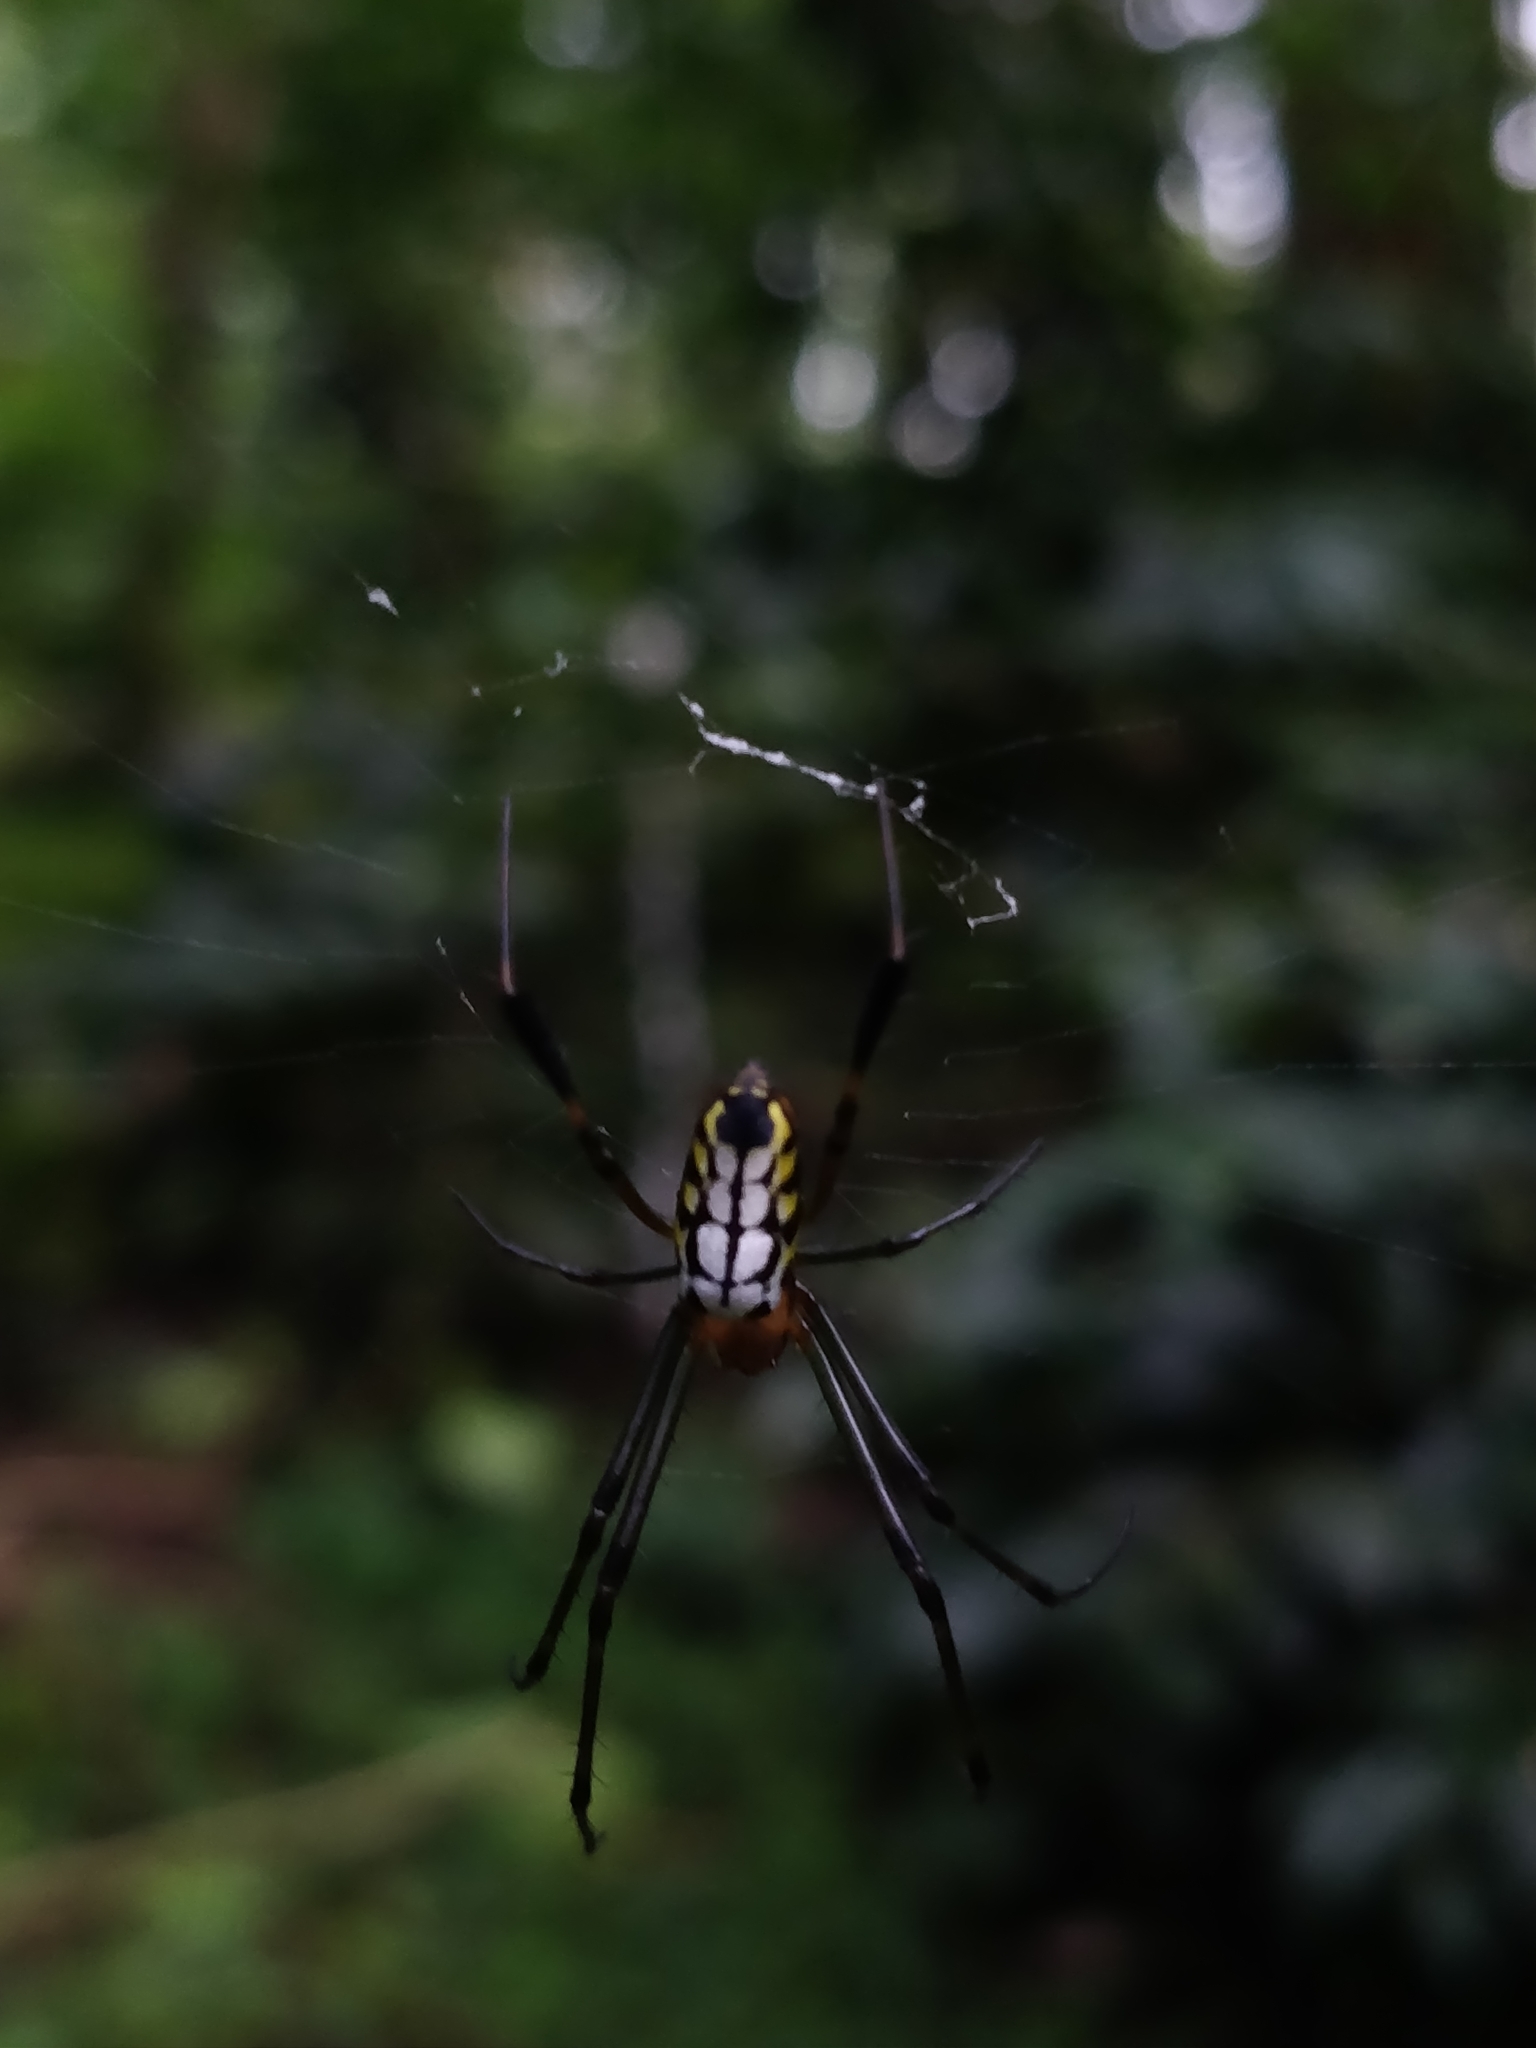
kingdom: Animalia
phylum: Arthropoda
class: Arachnida
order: Araneae
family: Tetragnathidae
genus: Leucauge
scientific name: Leucauge tessellata
